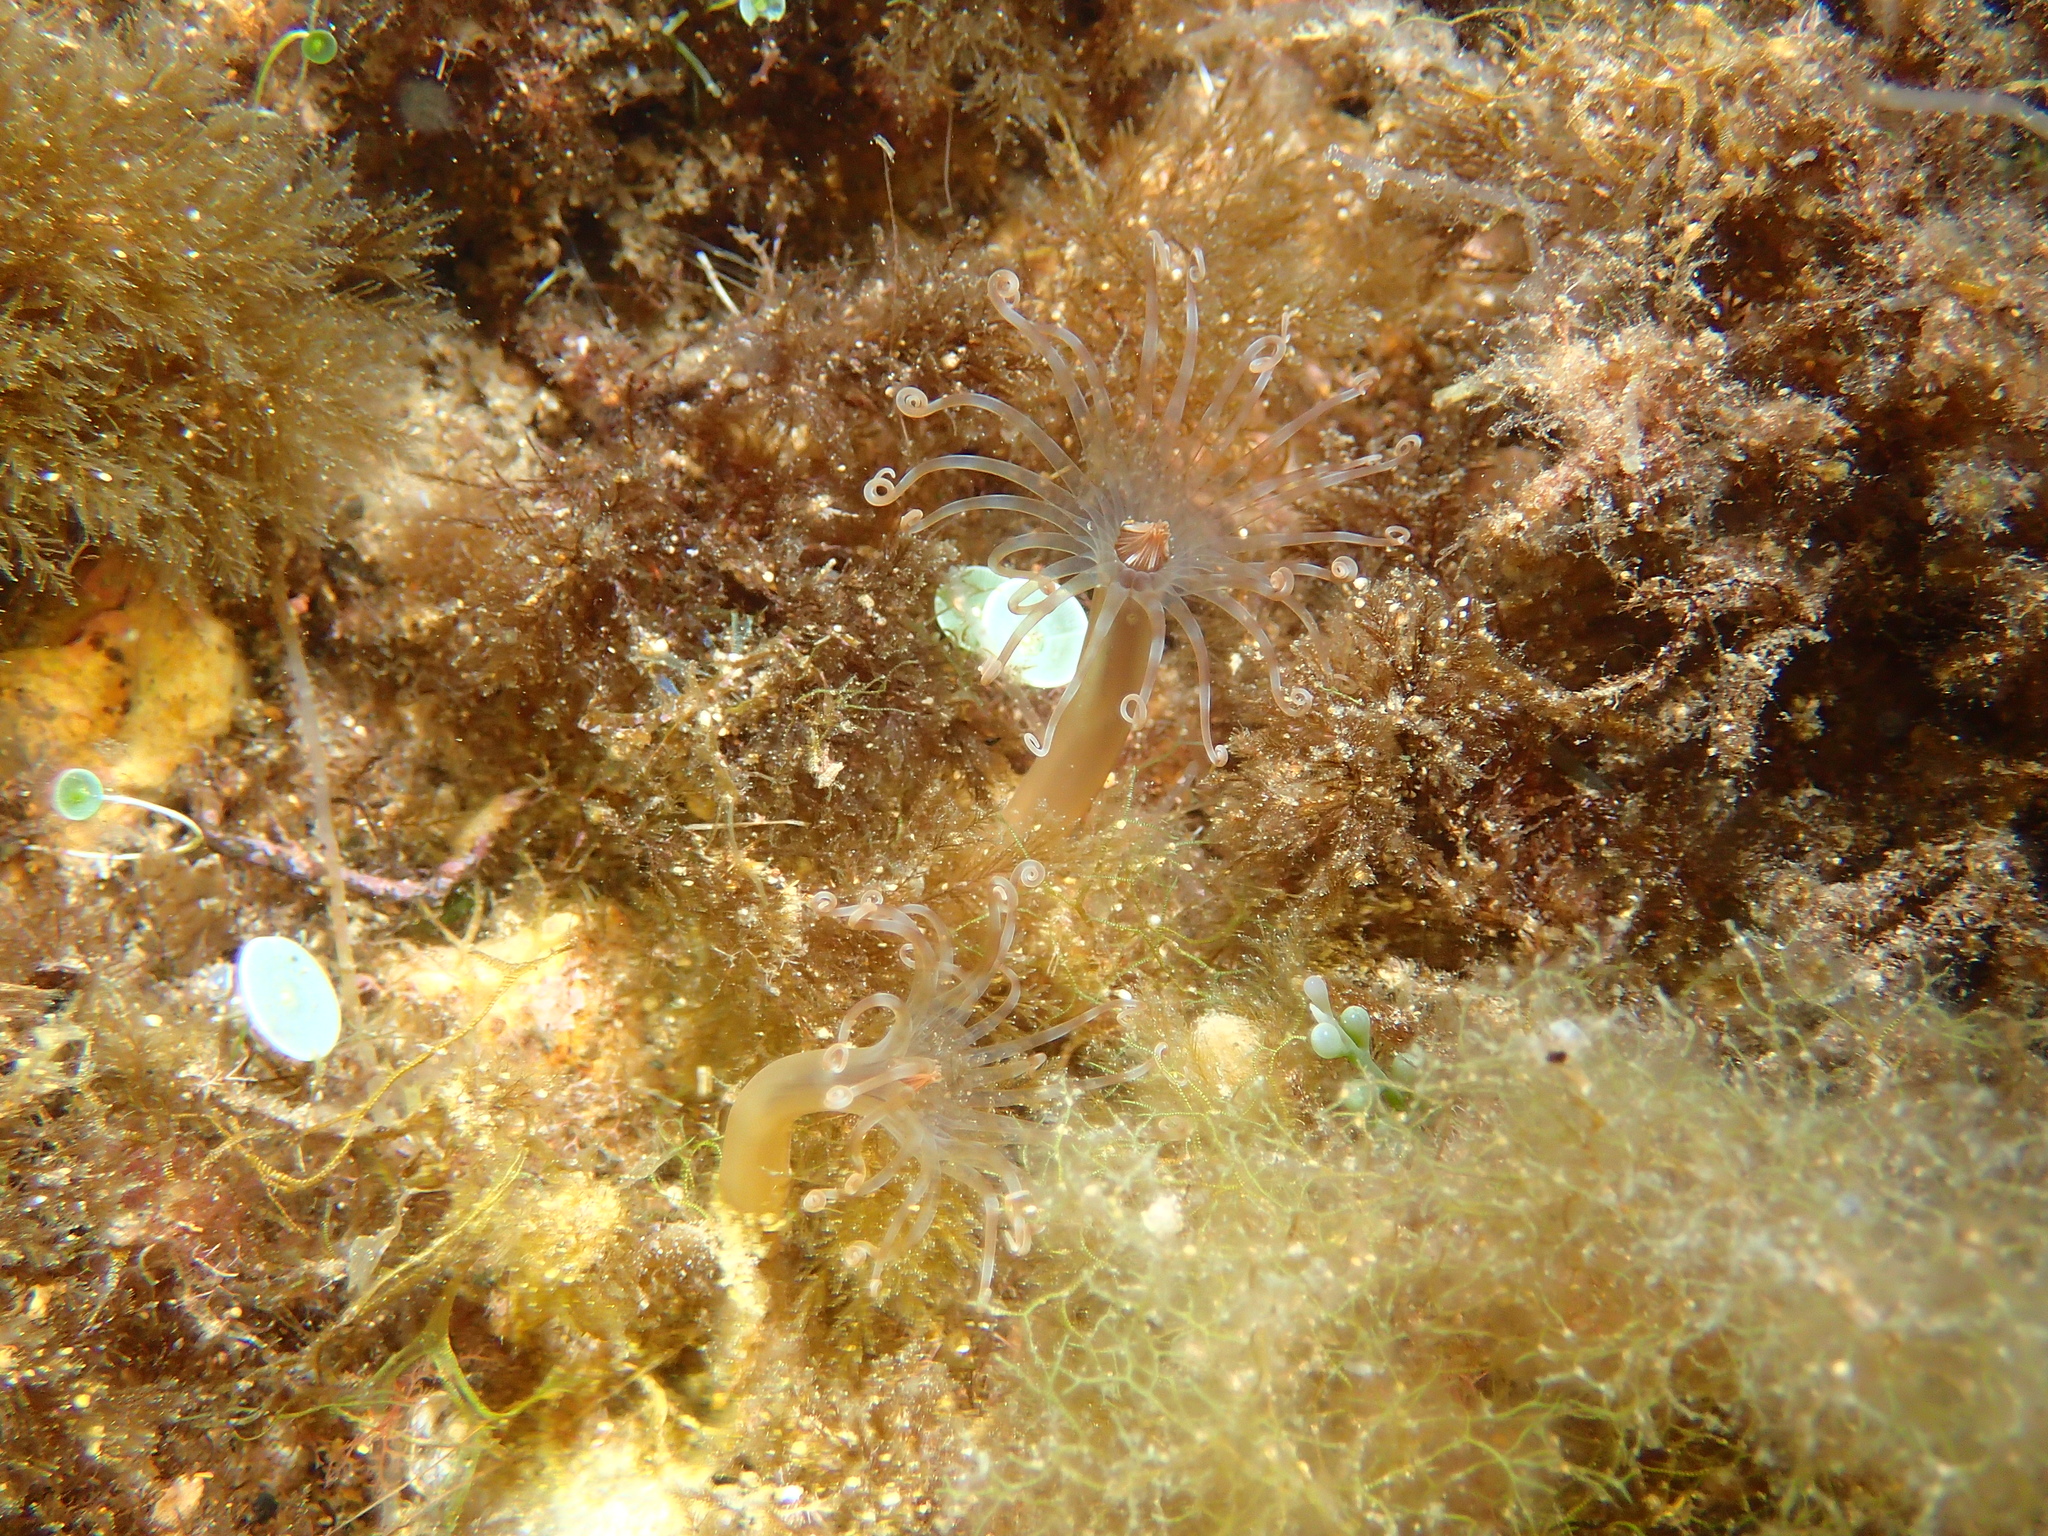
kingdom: Animalia
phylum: Cnidaria
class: Anthozoa
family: Arachnactidae
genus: Arachnanthus
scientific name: Arachnanthus oligopodus
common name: Banded tube anemone
